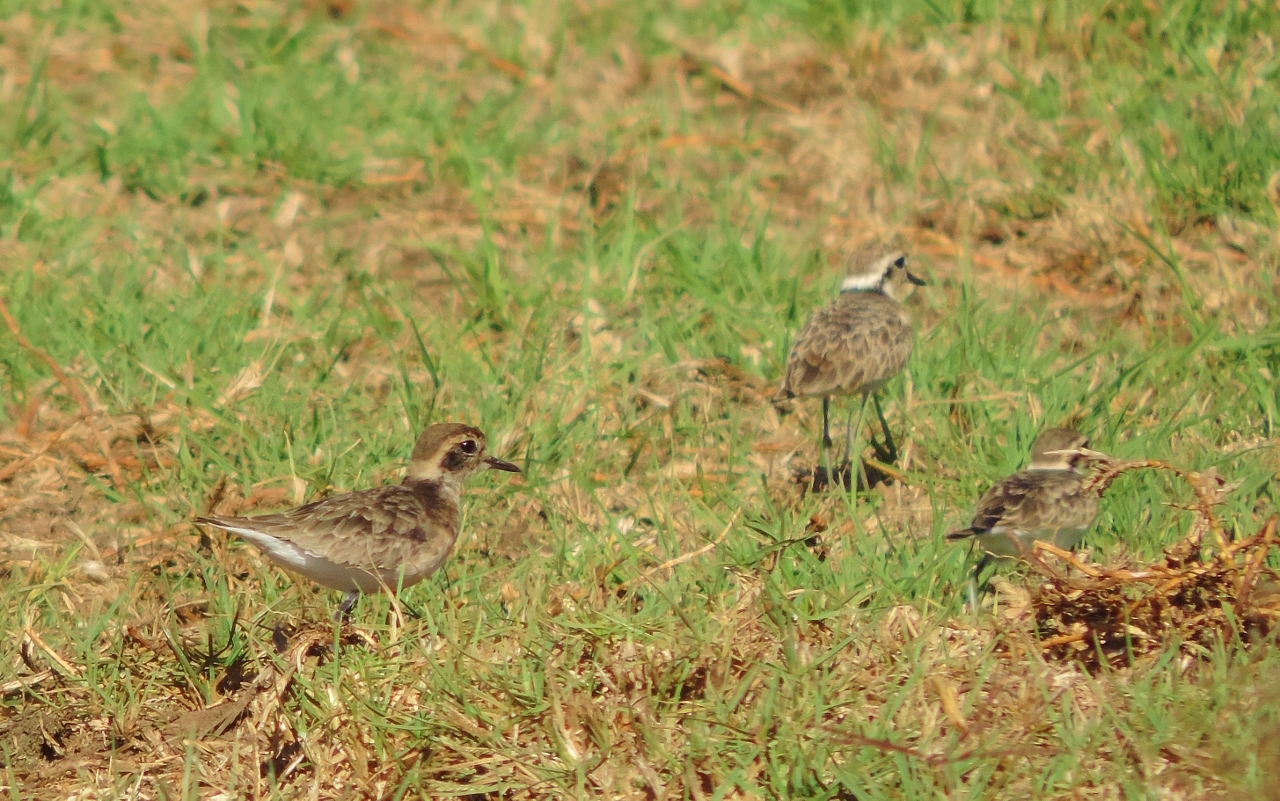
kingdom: Animalia
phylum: Chordata
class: Aves
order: Charadriiformes
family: Charadriidae
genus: Anarhynchus
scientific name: Anarhynchus
